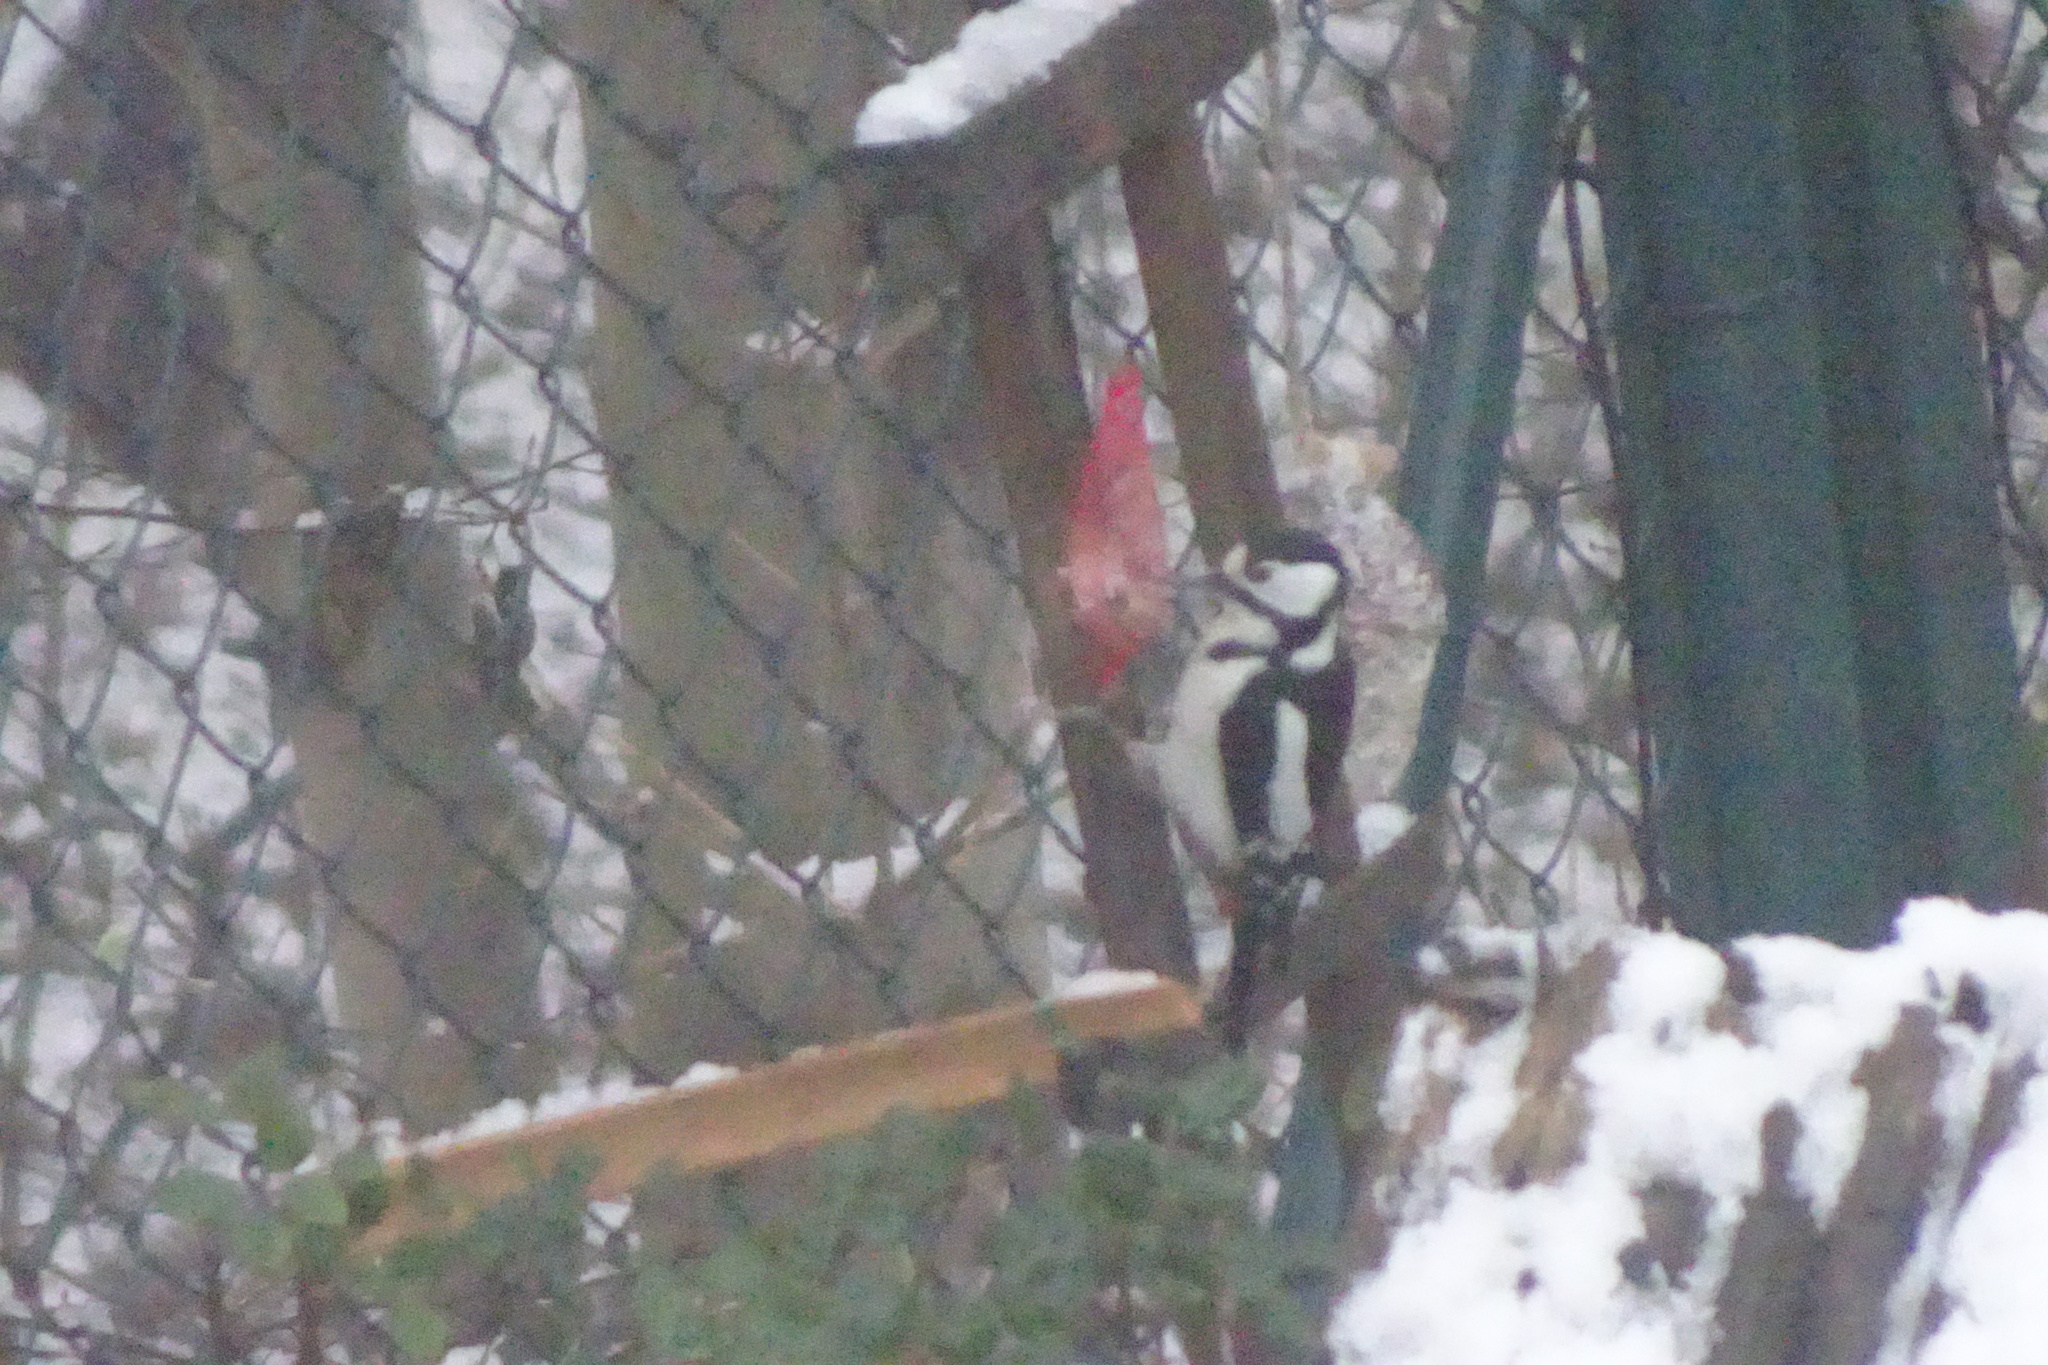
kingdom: Animalia
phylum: Chordata
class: Aves
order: Piciformes
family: Picidae
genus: Dendrocopos
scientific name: Dendrocopos major
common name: Great spotted woodpecker
